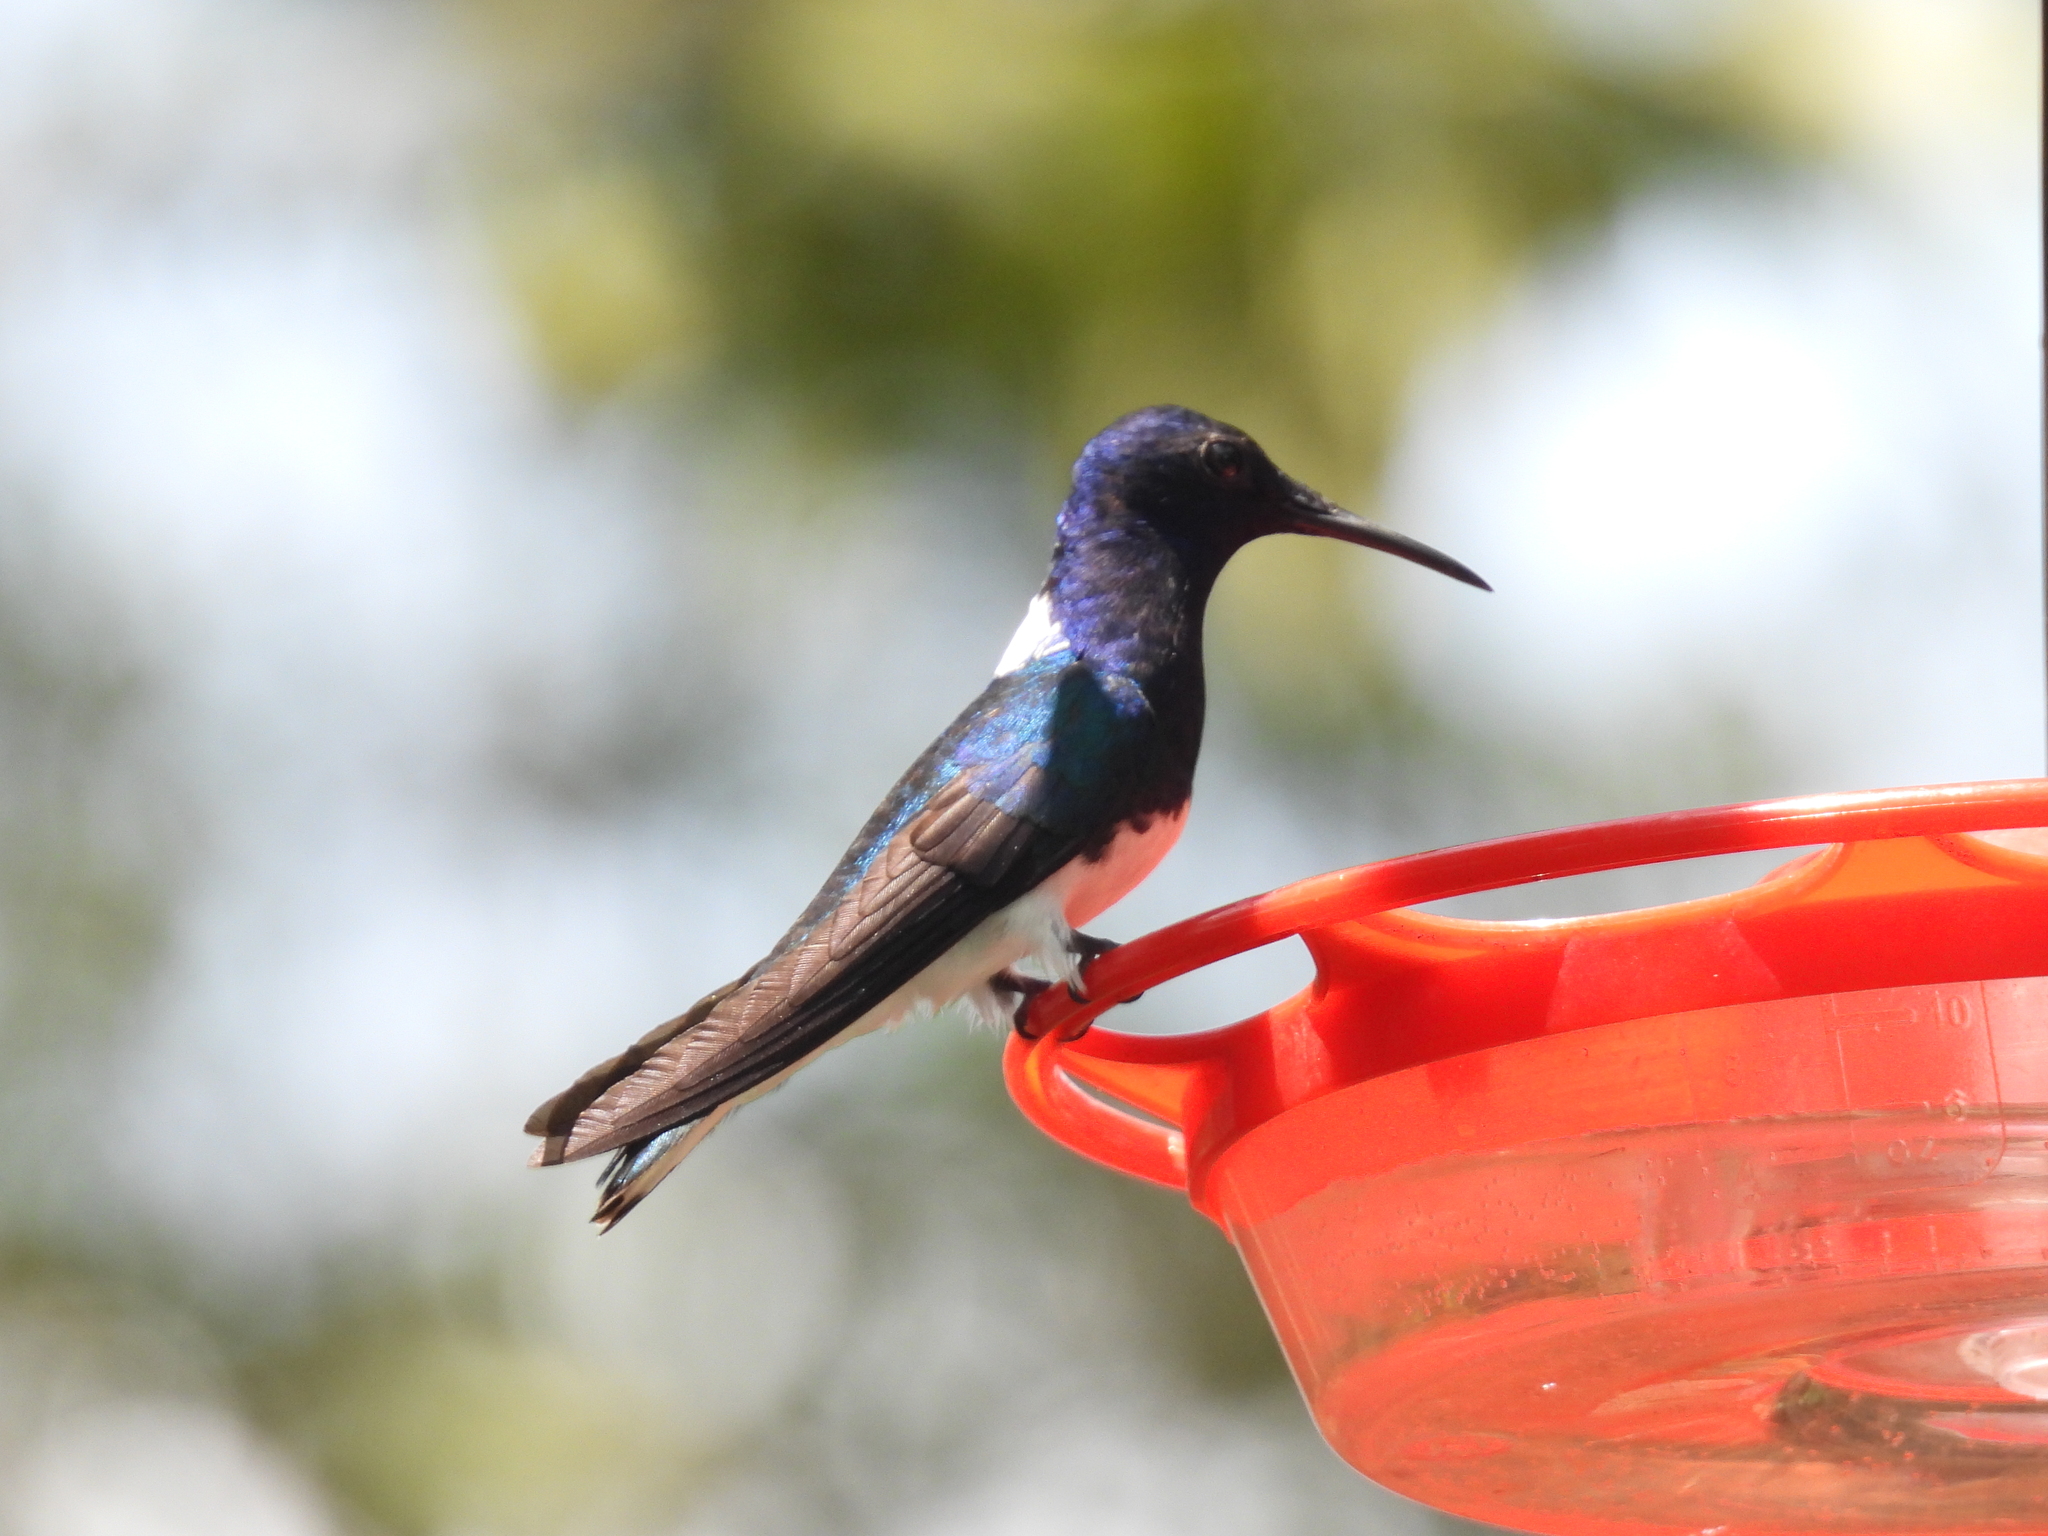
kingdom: Animalia
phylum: Chordata
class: Aves
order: Apodiformes
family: Trochilidae
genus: Florisuga
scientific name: Florisuga mellivora
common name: White-necked jacobin
